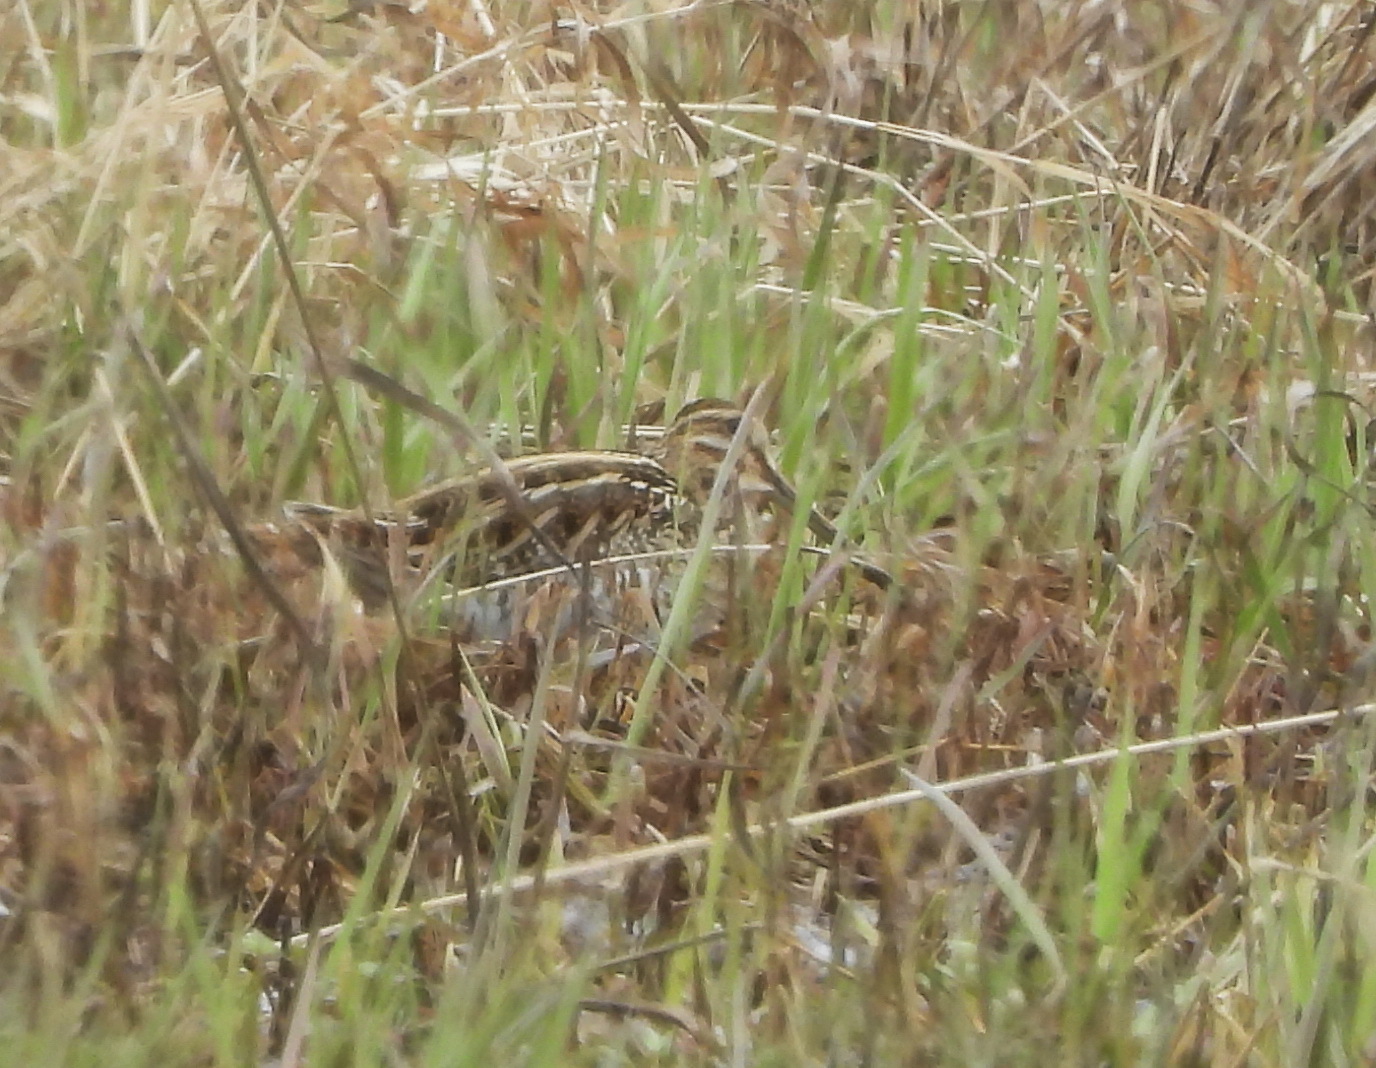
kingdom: Animalia
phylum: Chordata
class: Aves
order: Charadriiformes
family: Scolopacidae
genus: Gallinago
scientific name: Gallinago gallinago
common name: Common snipe
